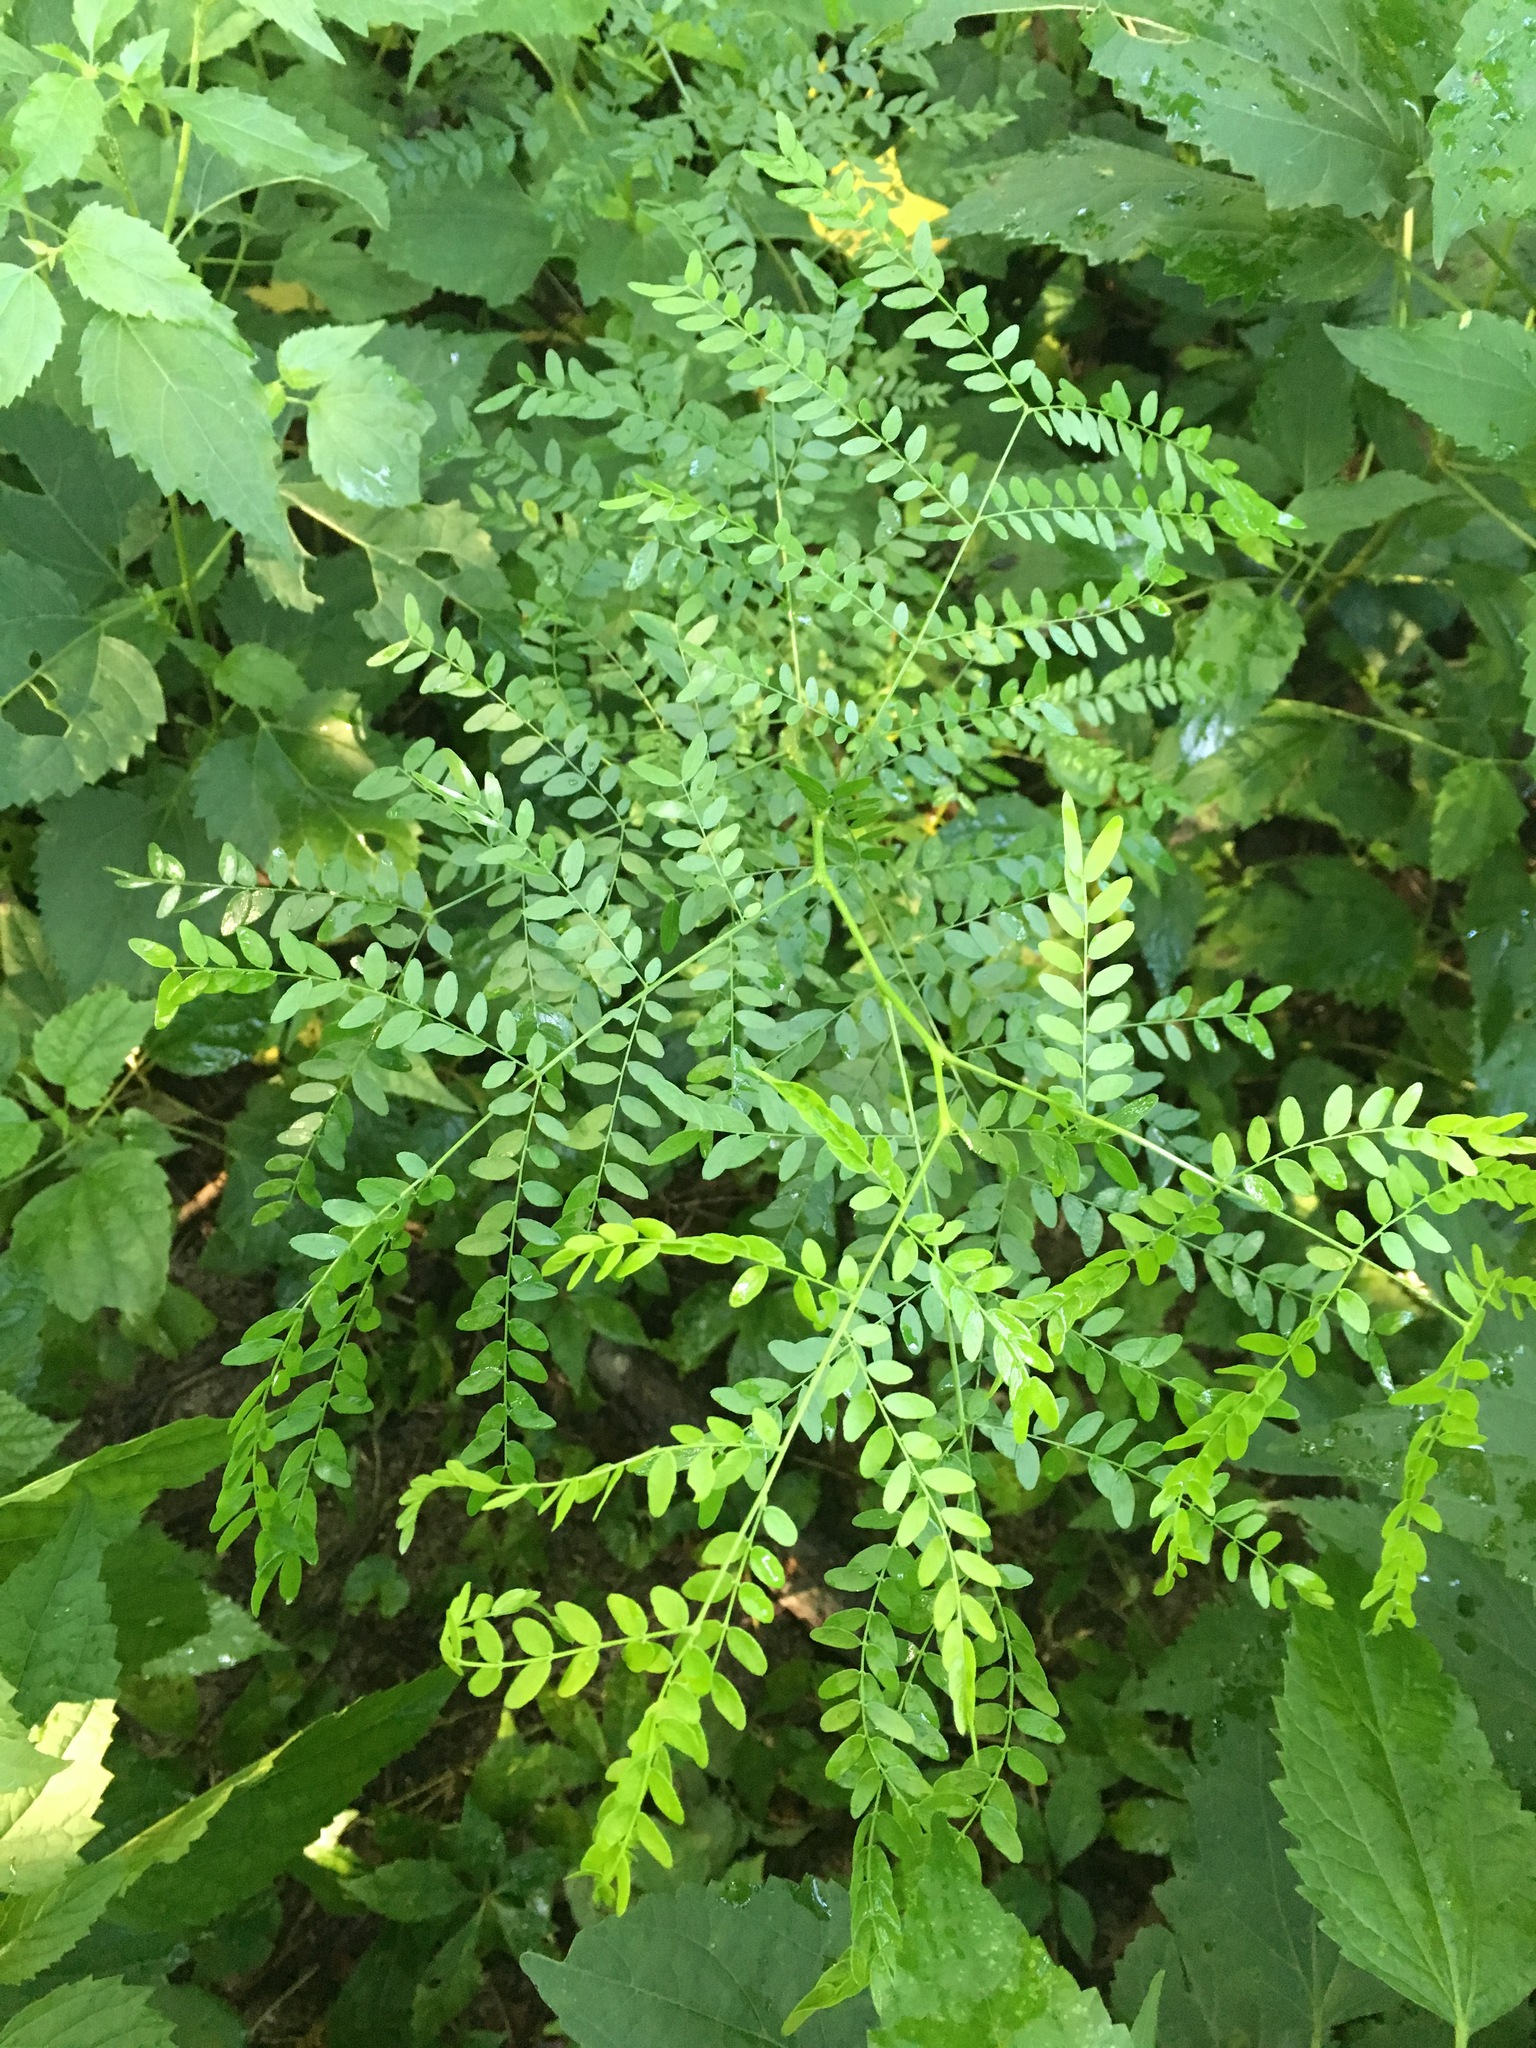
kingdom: Plantae
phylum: Tracheophyta
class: Magnoliopsida
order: Fabales
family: Fabaceae
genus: Gleditsia
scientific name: Gleditsia triacanthos
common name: Common honeylocust
